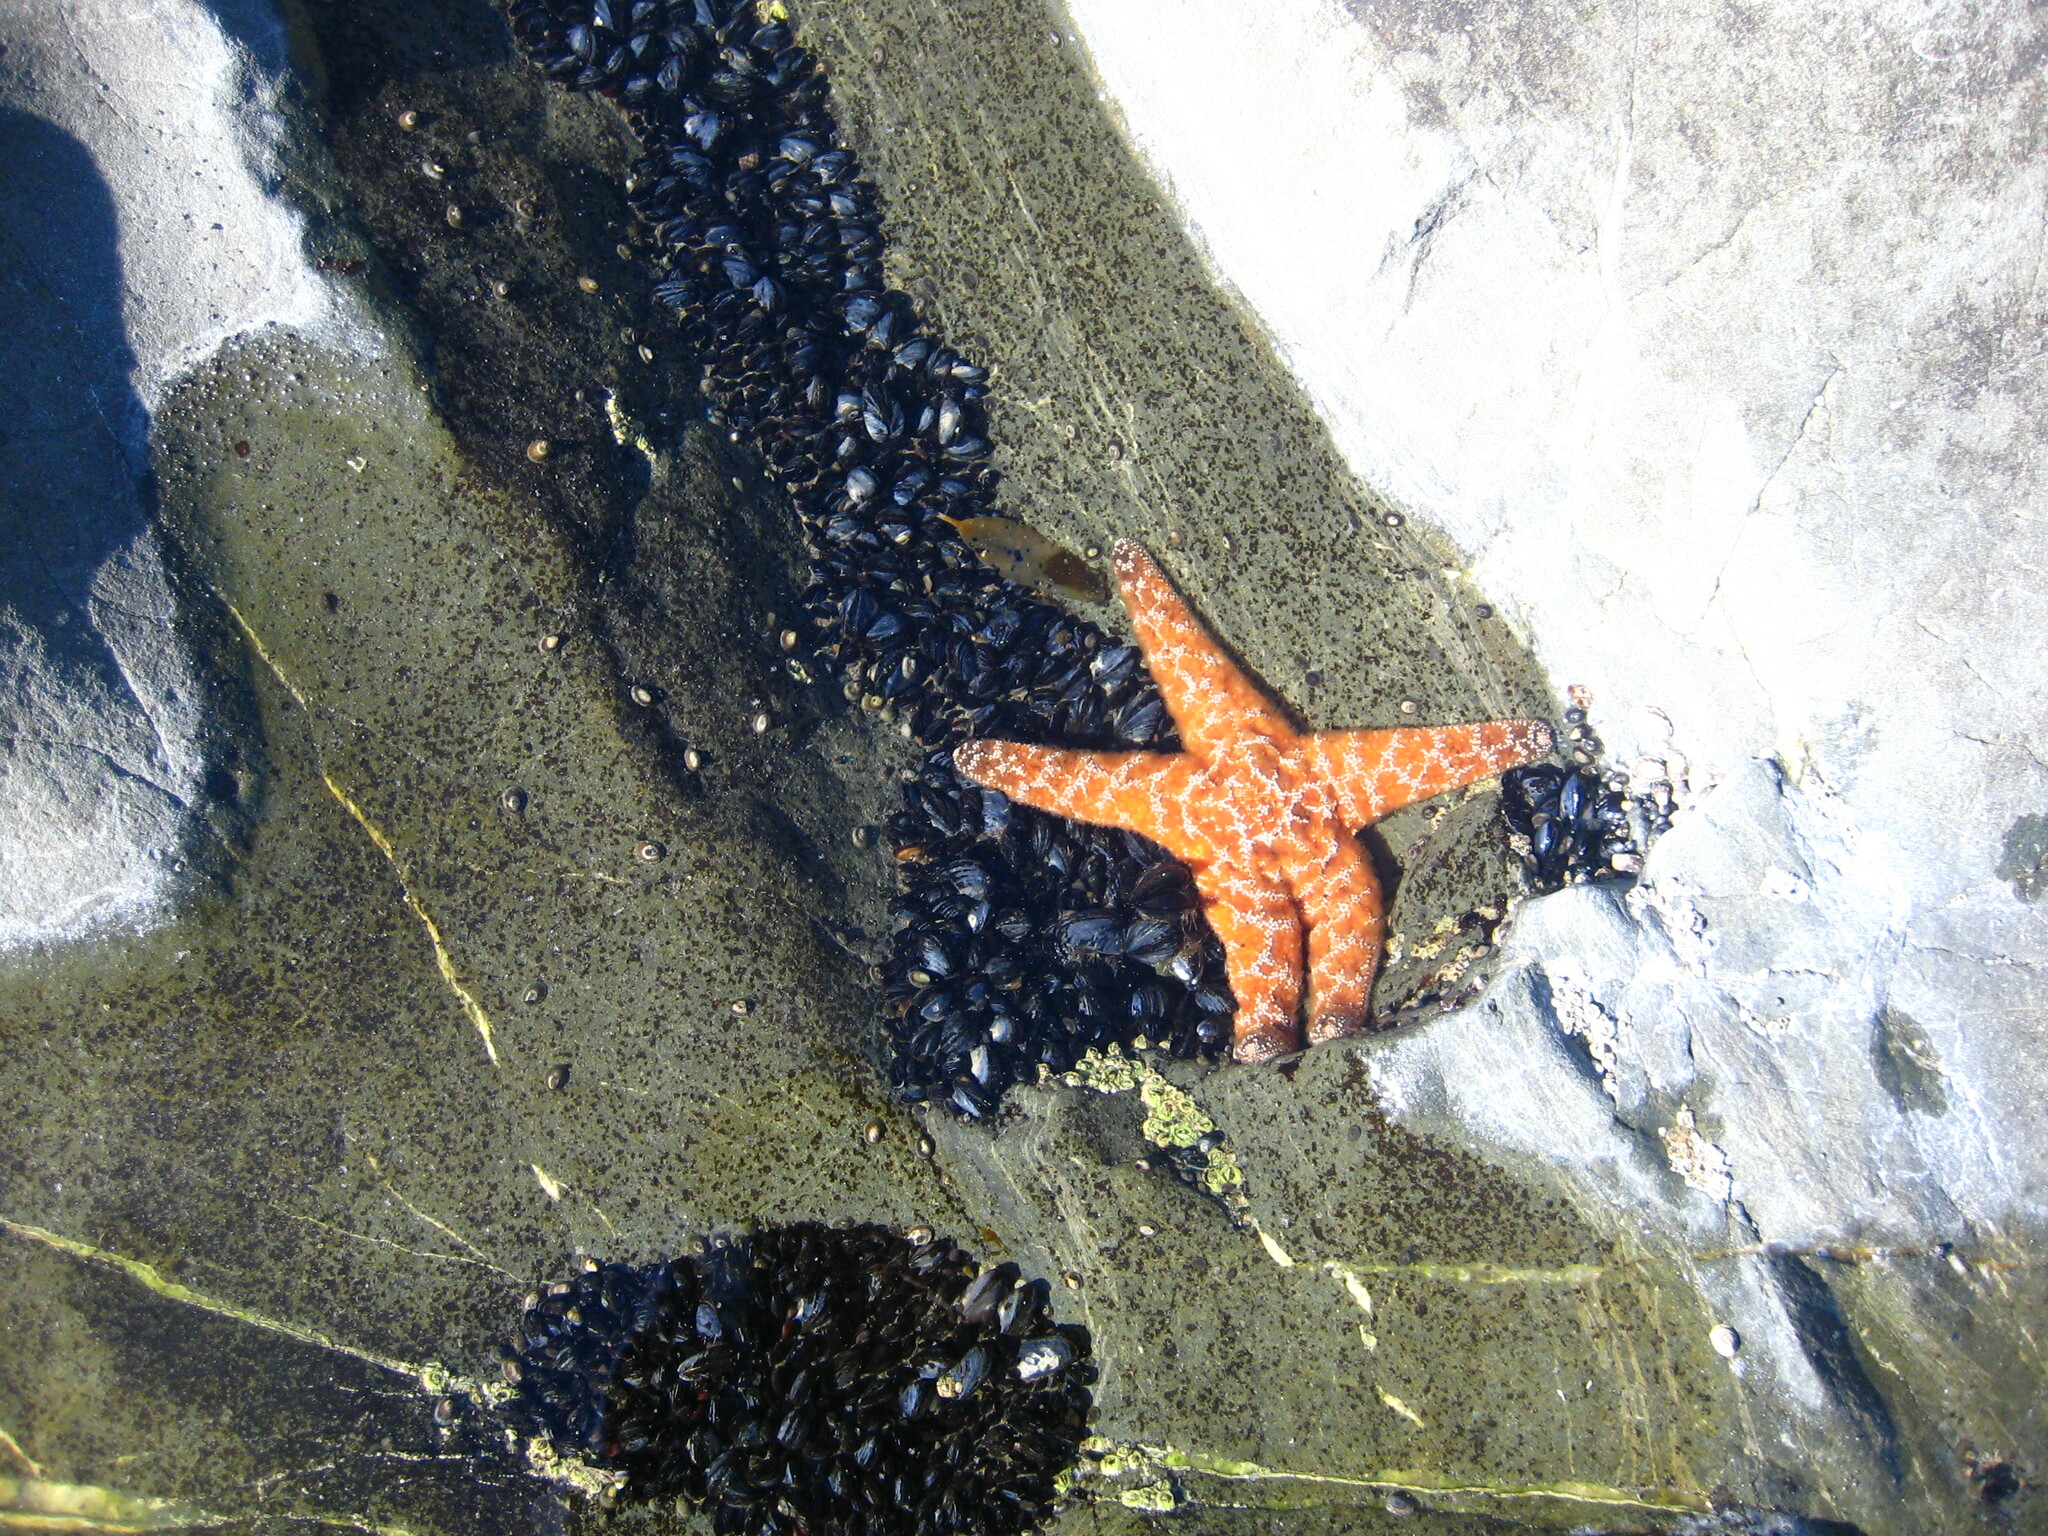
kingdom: Animalia
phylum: Echinodermata
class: Asteroidea
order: Forcipulatida
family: Asteriidae
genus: Pisaster
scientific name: Pisaster ochraceus
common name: Ochre stars
